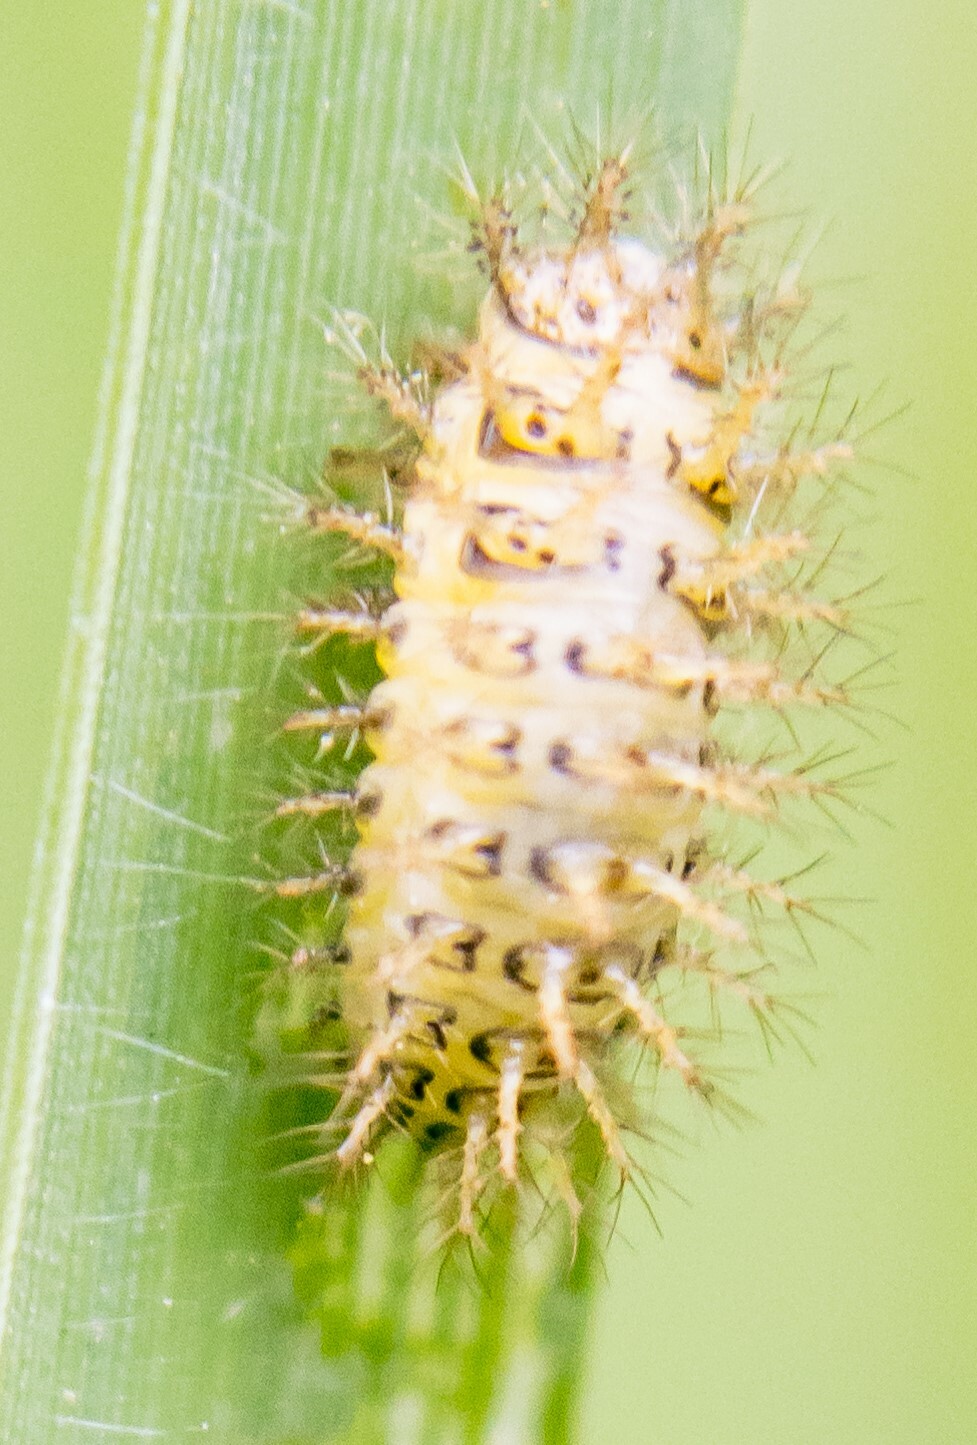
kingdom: Animalia
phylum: Arthropoda
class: Insecta
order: Coleoptera
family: Coccinellidae
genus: Subcoccinella
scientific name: Subcoccinella vigintiquatuorpunctata
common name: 24-spot ladybird
